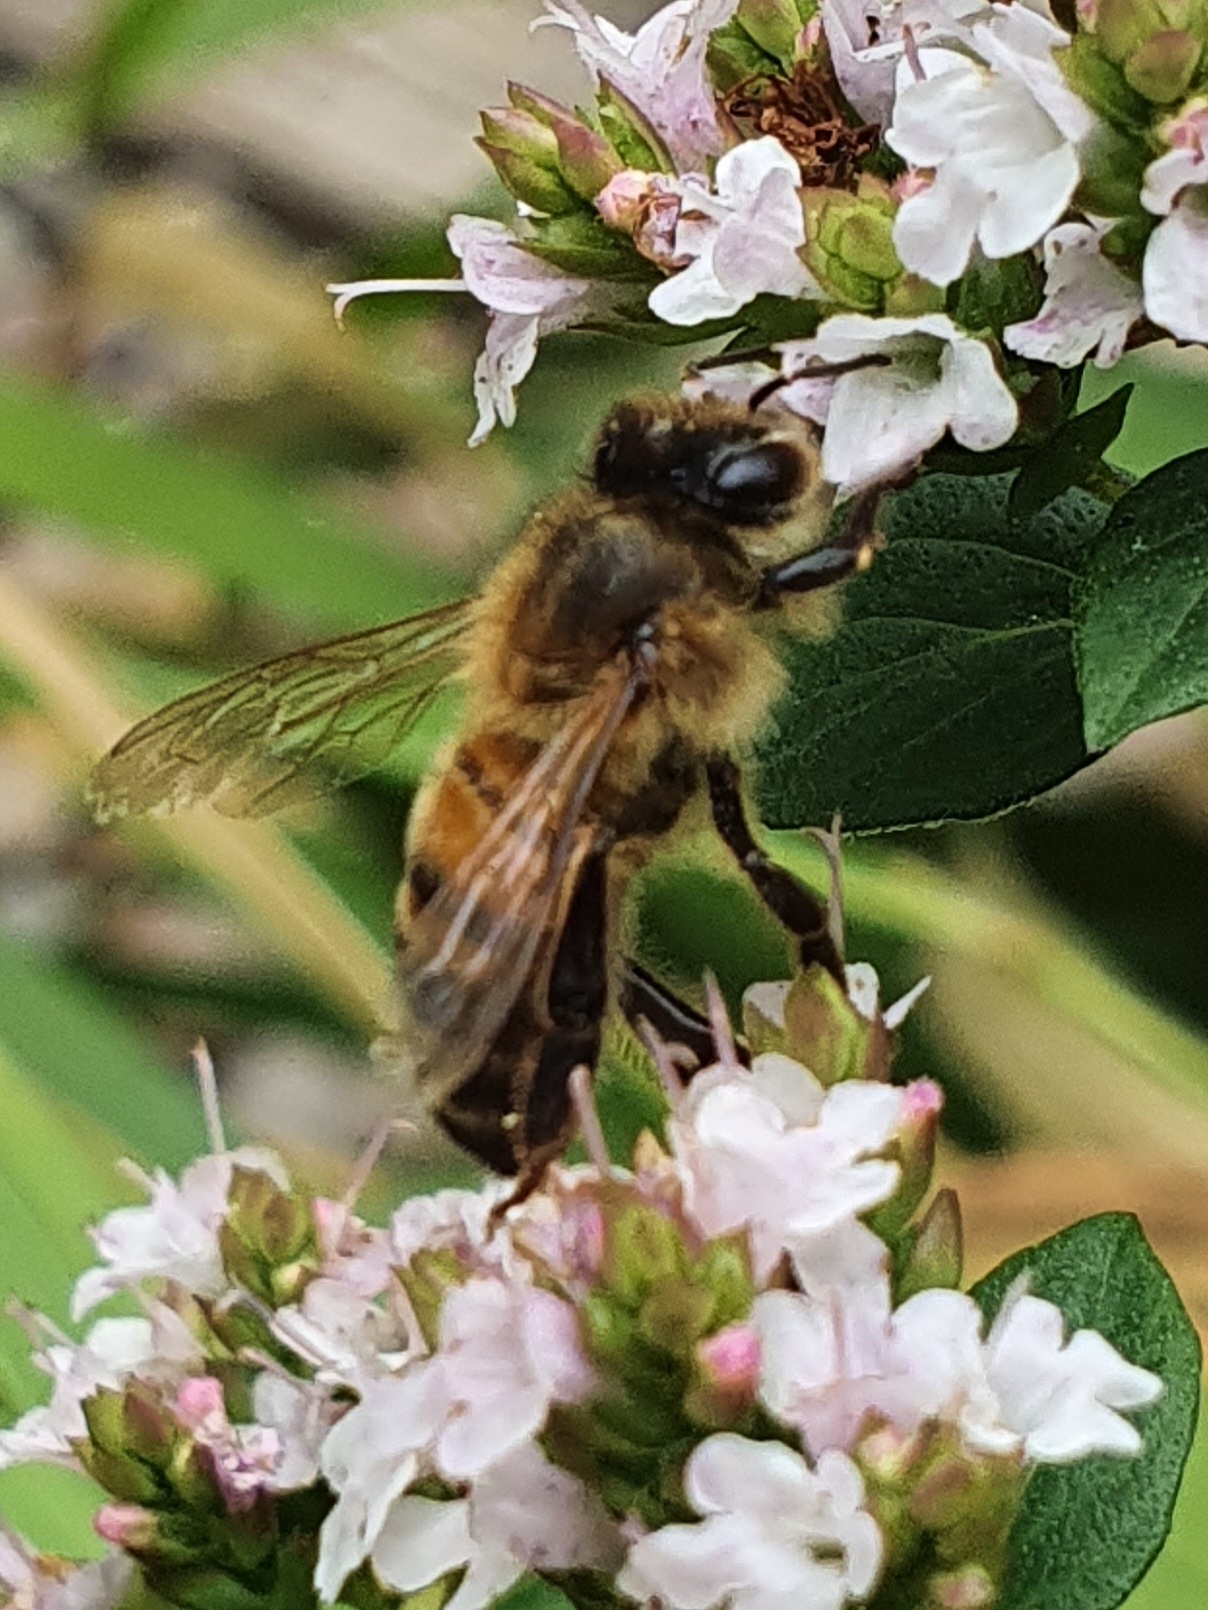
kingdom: Animalia
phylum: Arthropoda
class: Insecta
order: Hymenoptera
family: Apidae
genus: Apis
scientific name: Apis mellifera
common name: Honey bee
